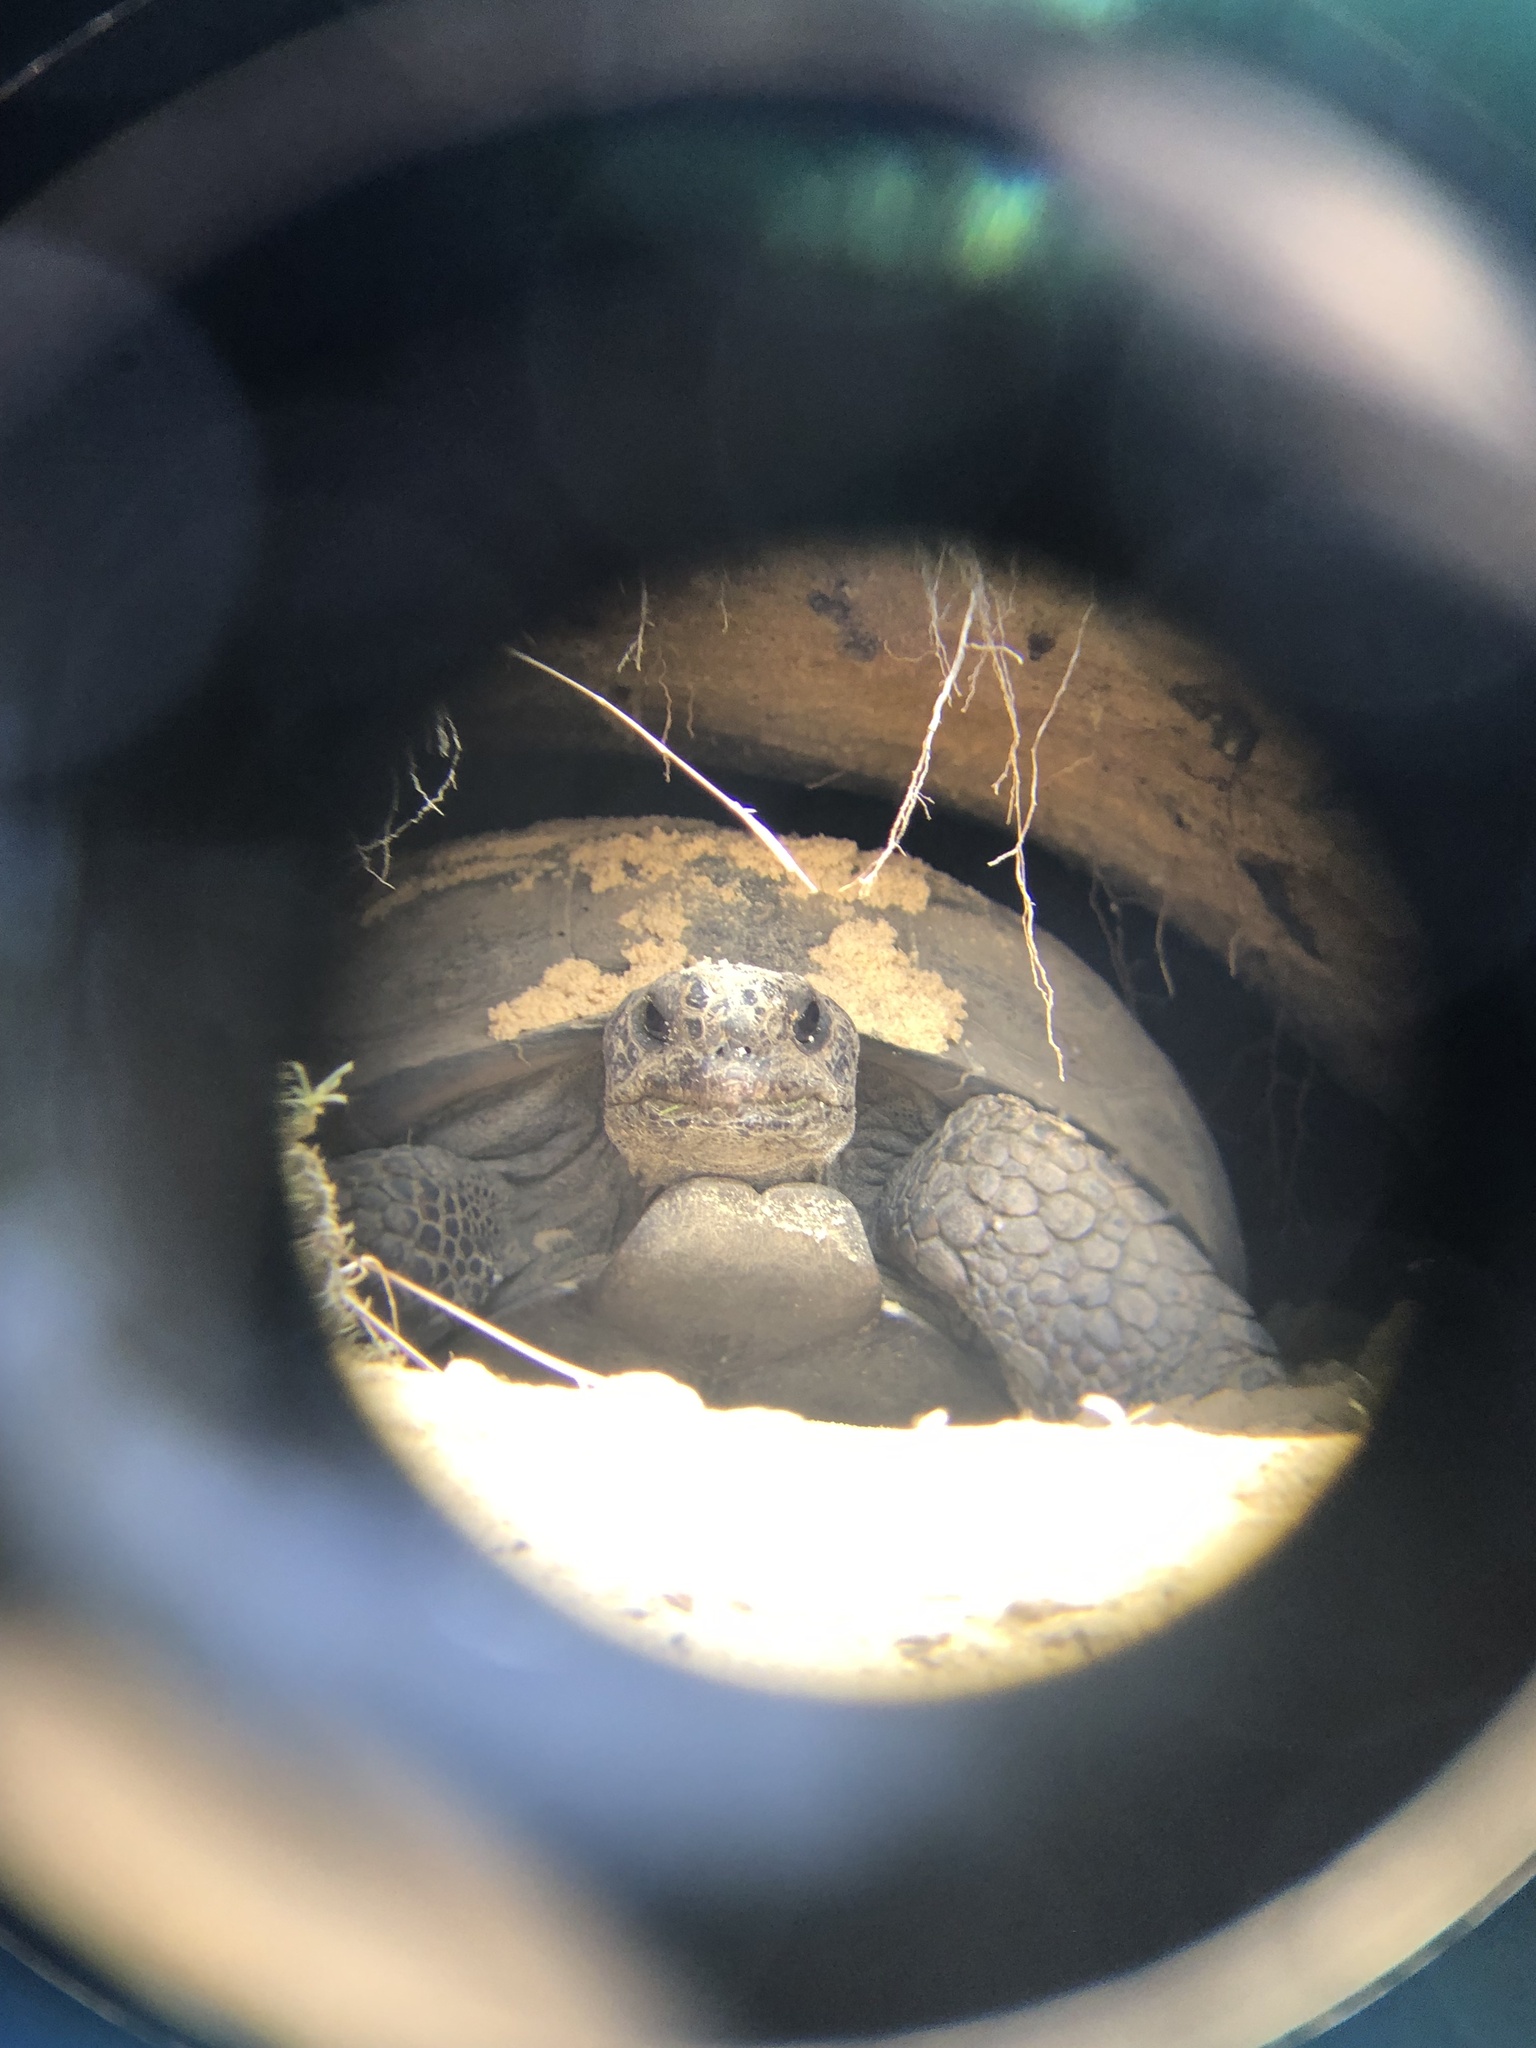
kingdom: Animalia
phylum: Chordata
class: Testudines
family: Testudinidae
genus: Gopherus
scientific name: Gopherus polyphemus
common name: Florida gopher tortoise
